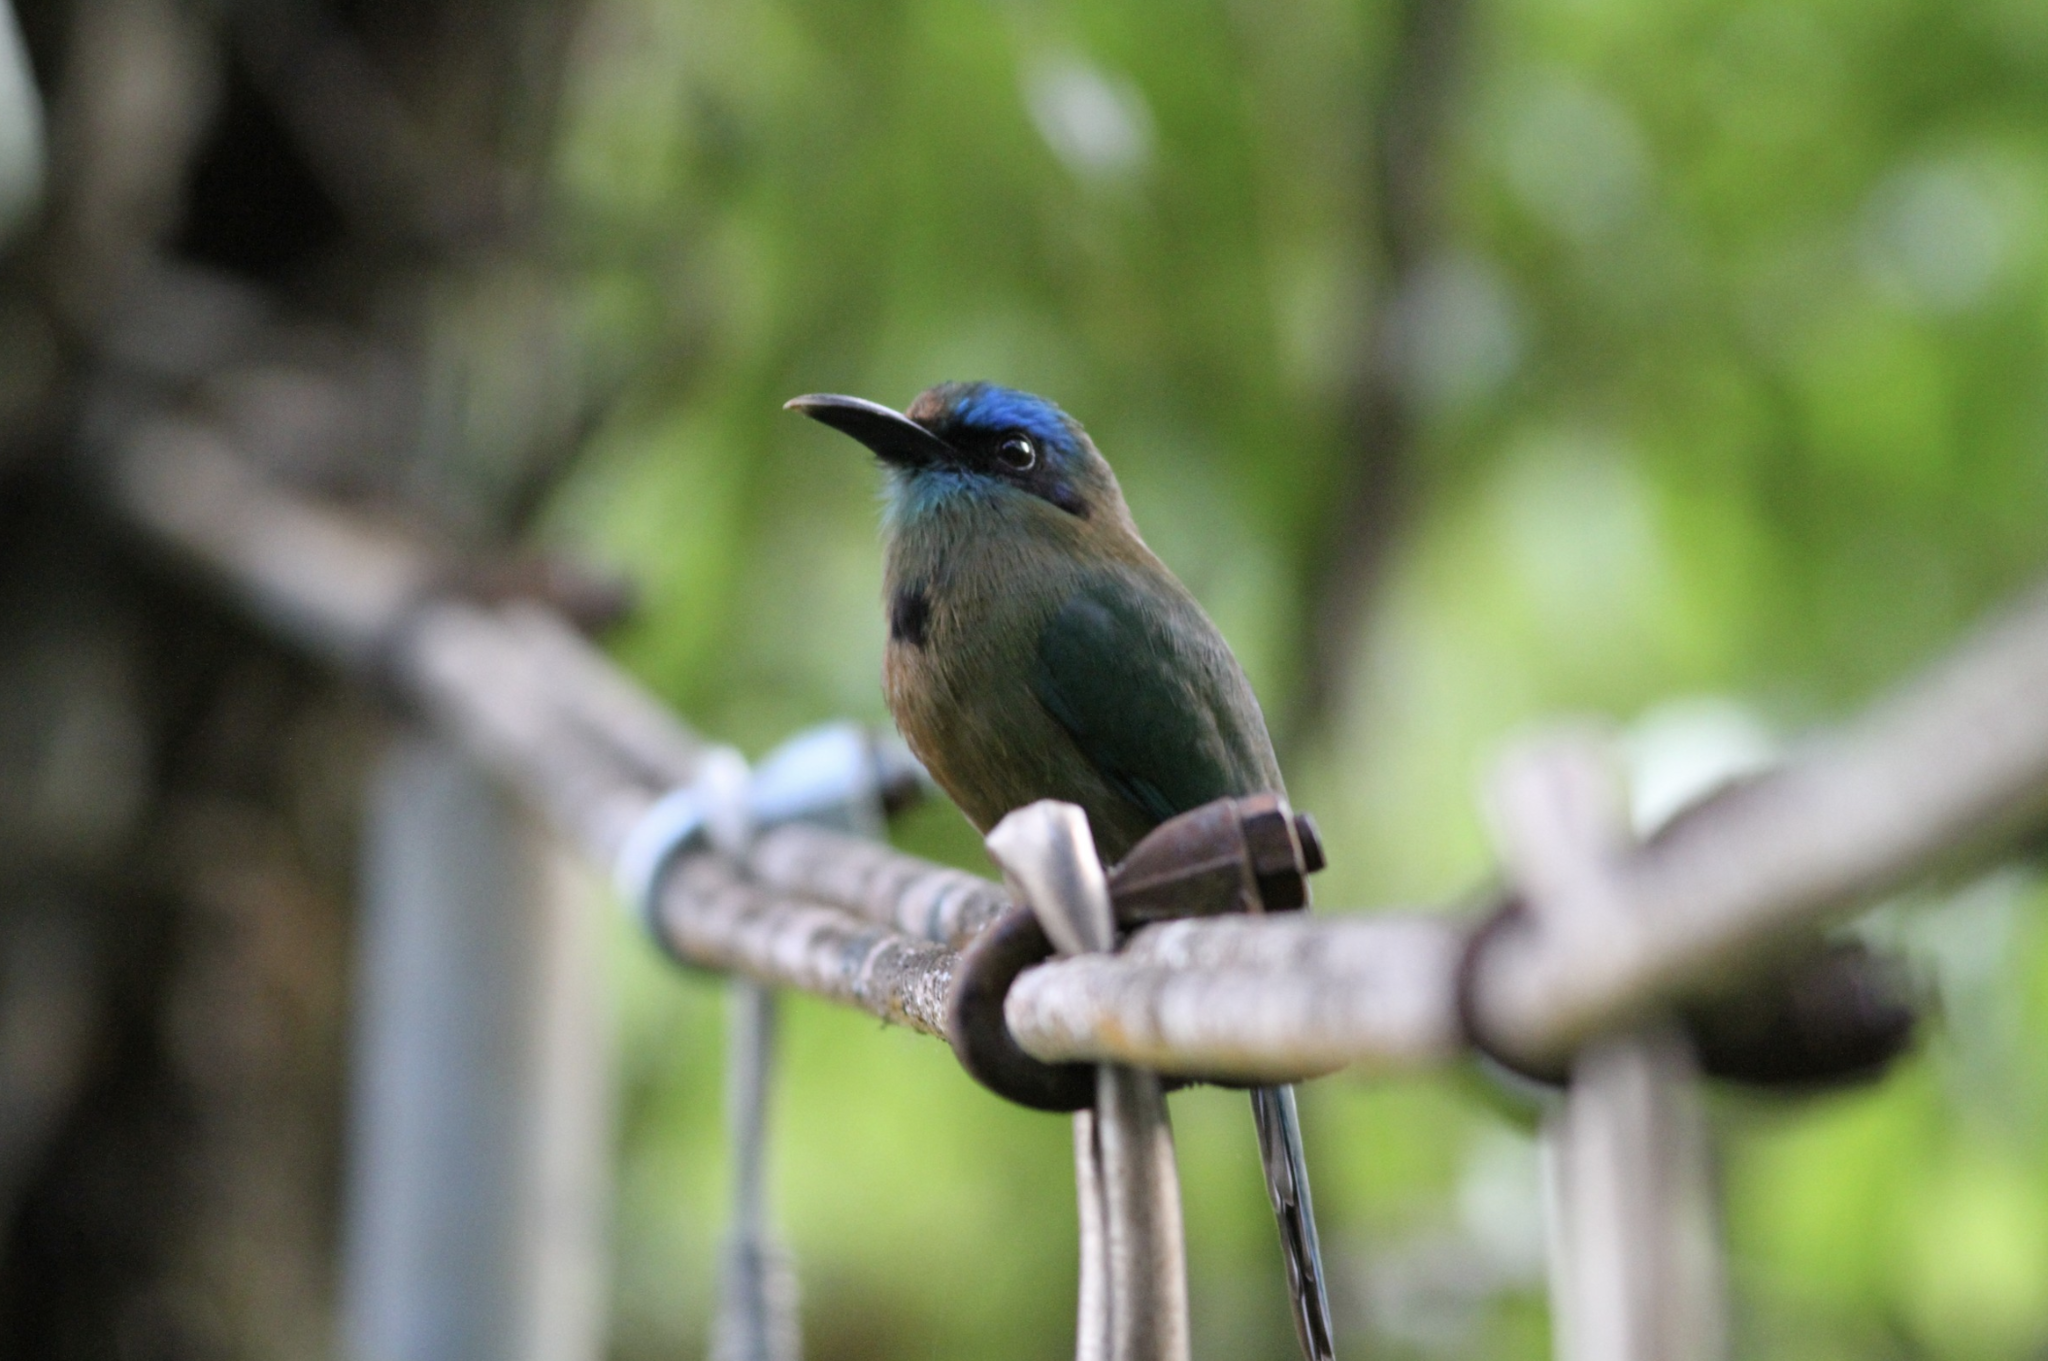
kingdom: Animalia
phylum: Chordata
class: Aves
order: Coraciiformes
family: Momotidae
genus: Electron
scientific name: Electron carinatum
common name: Keel-billed motmot
